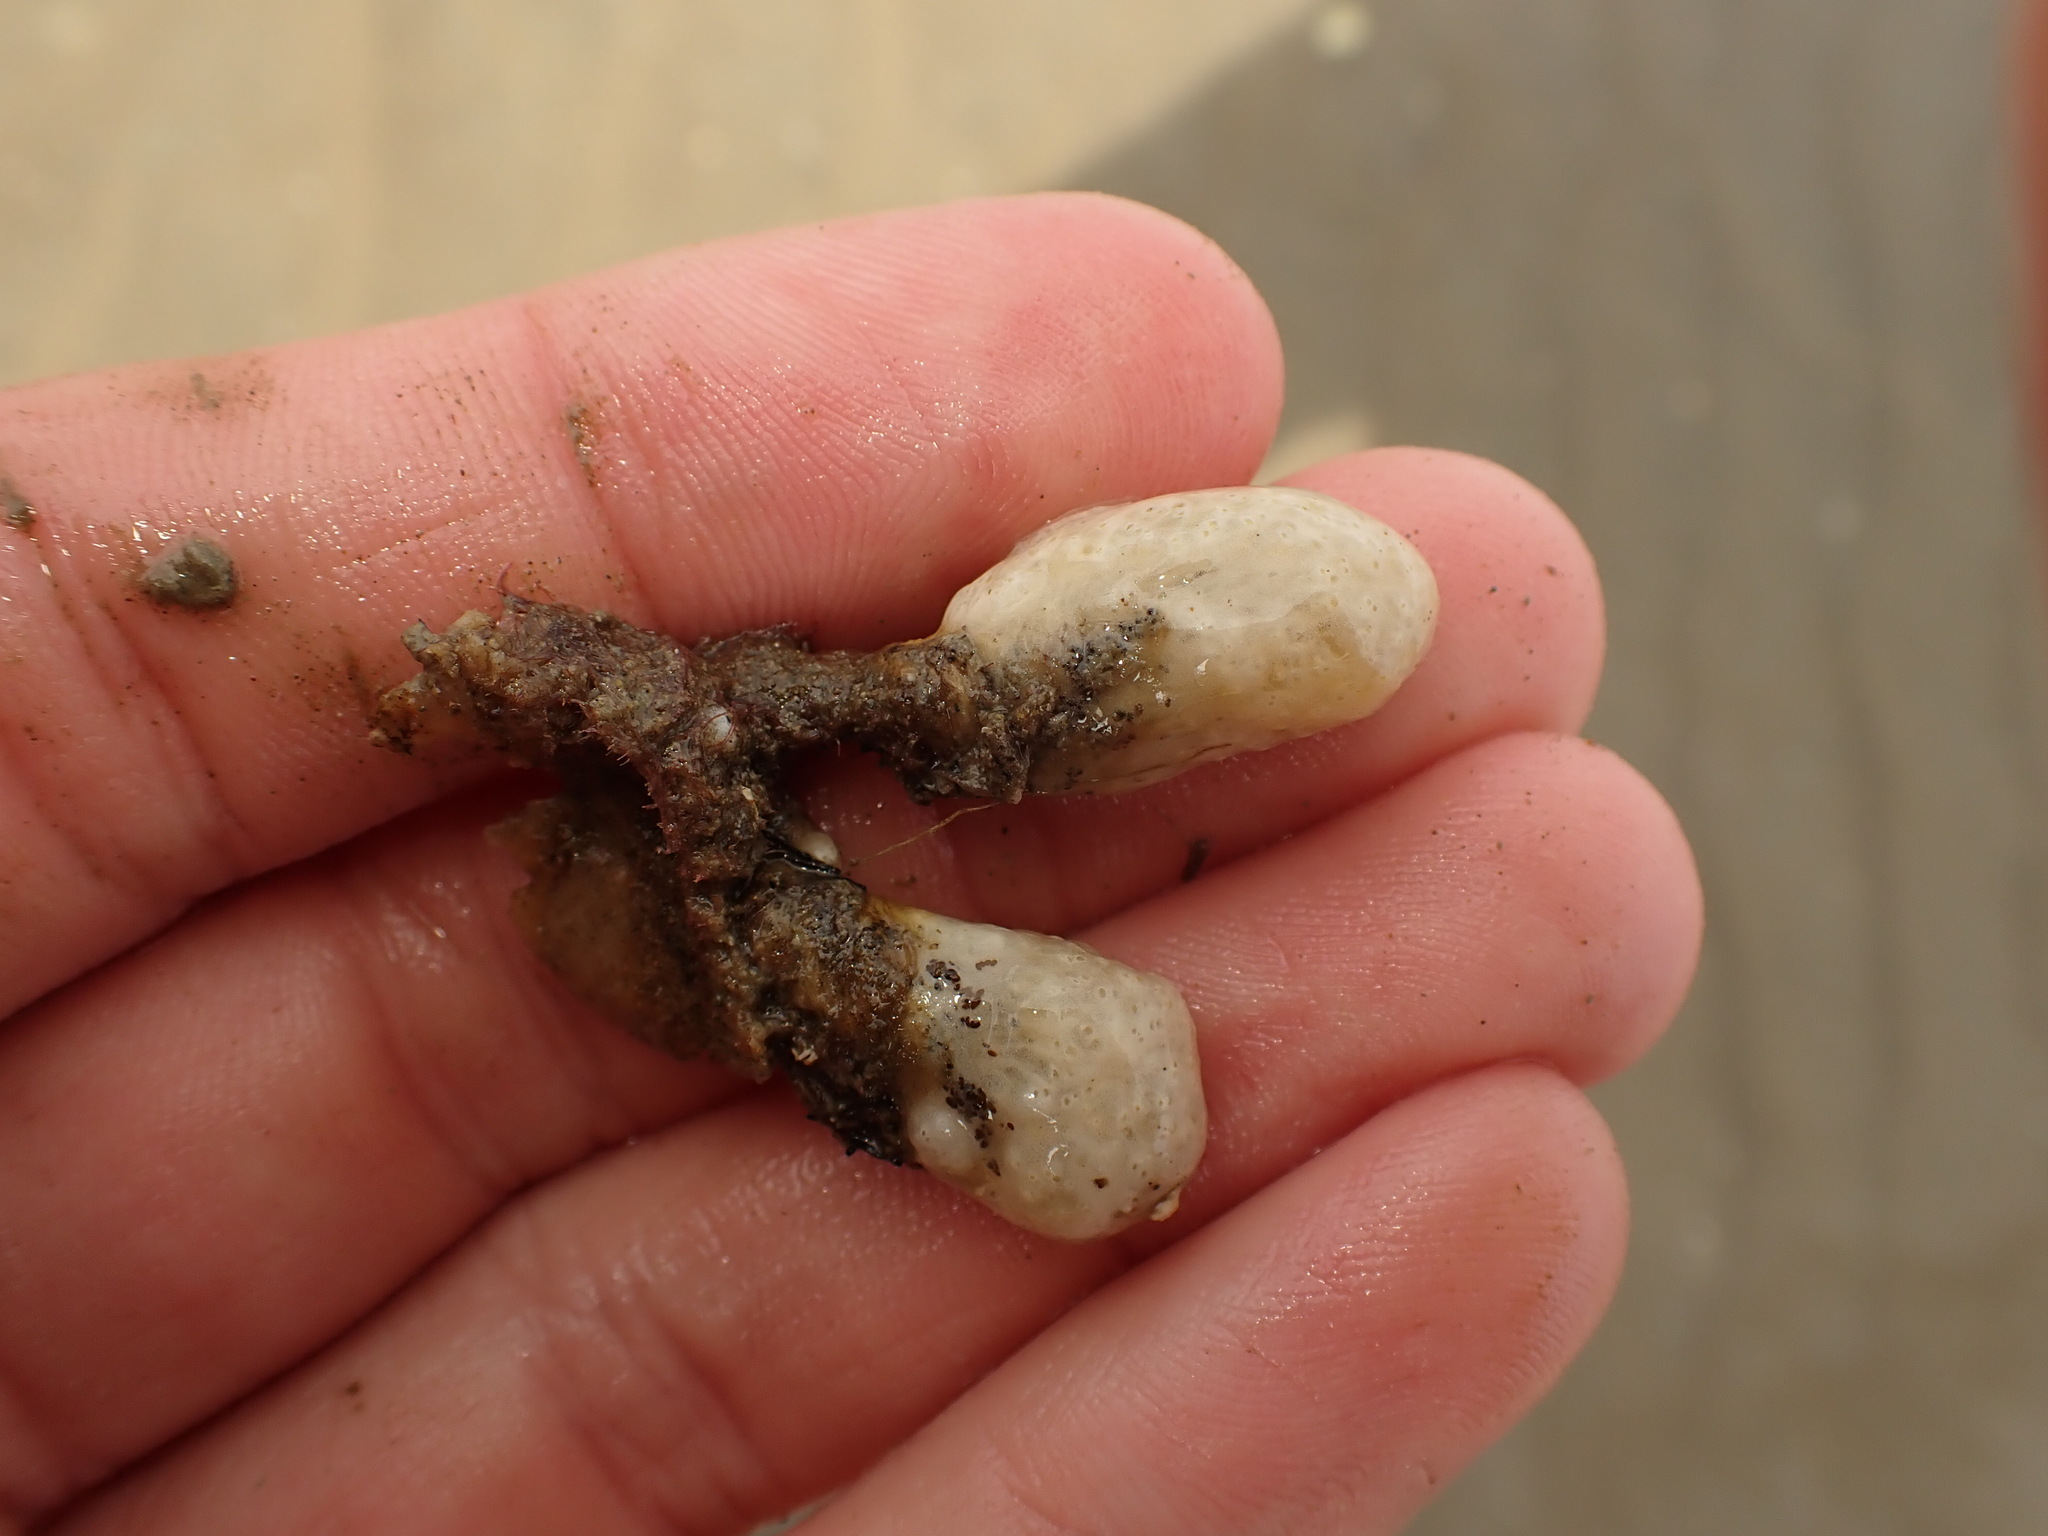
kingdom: Animalia
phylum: Chordata
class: Ascidiacea
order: Aplousobranchia
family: Polycitoridae
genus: Eudistoma
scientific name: Eudistoma elongatum
